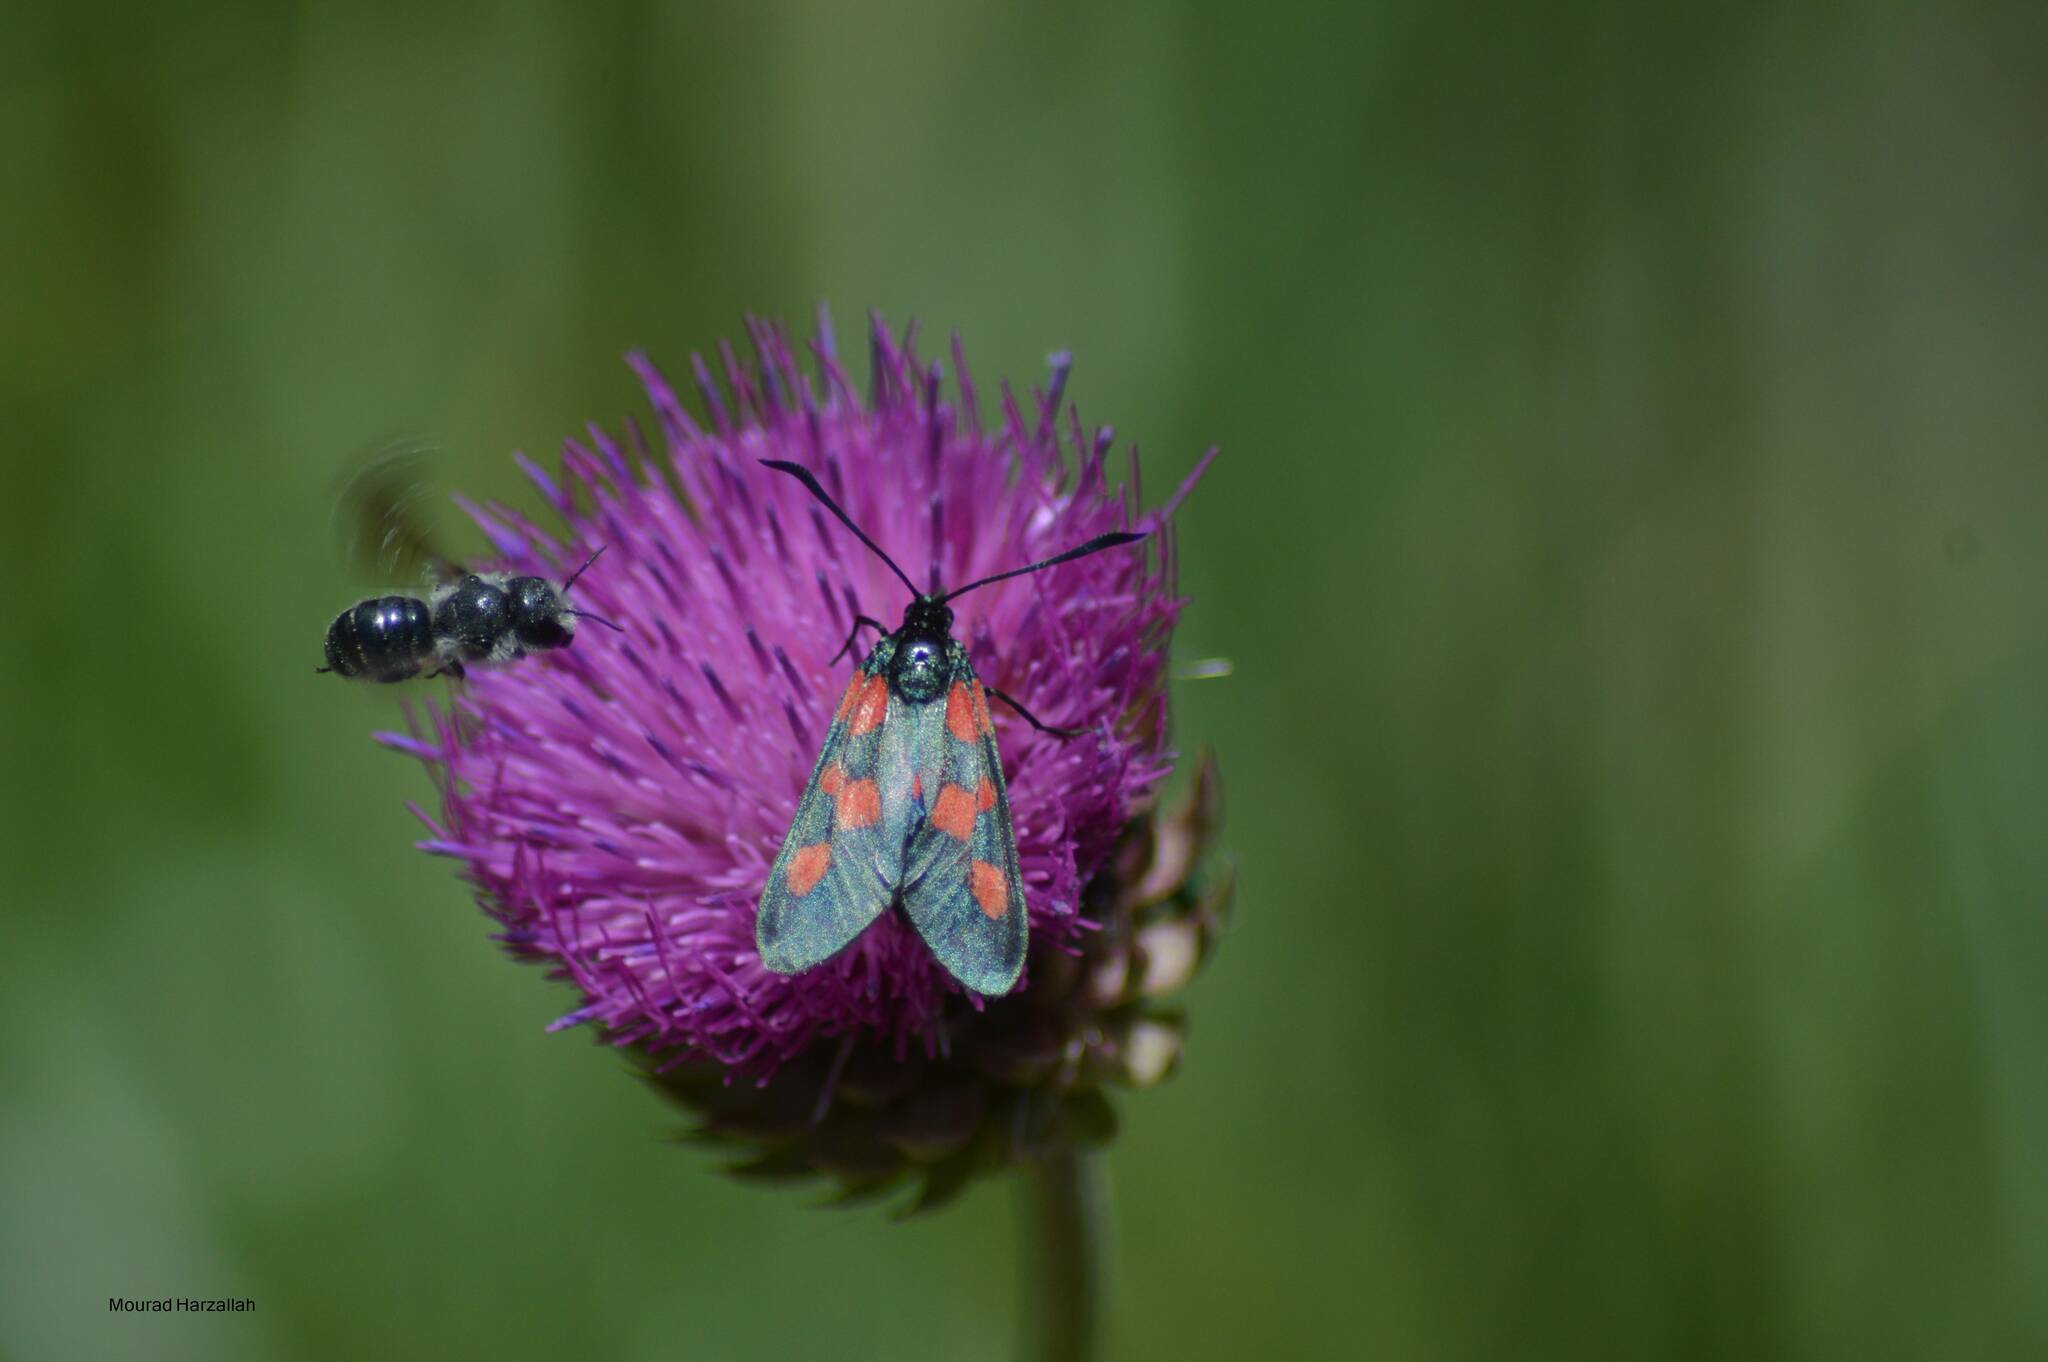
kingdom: Animalia
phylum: Arthropoda
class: Insecta
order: Lepidoptera
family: Zygaenidae
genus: Zygaena
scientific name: Zygaena trifolii
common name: Five-spot burnet
